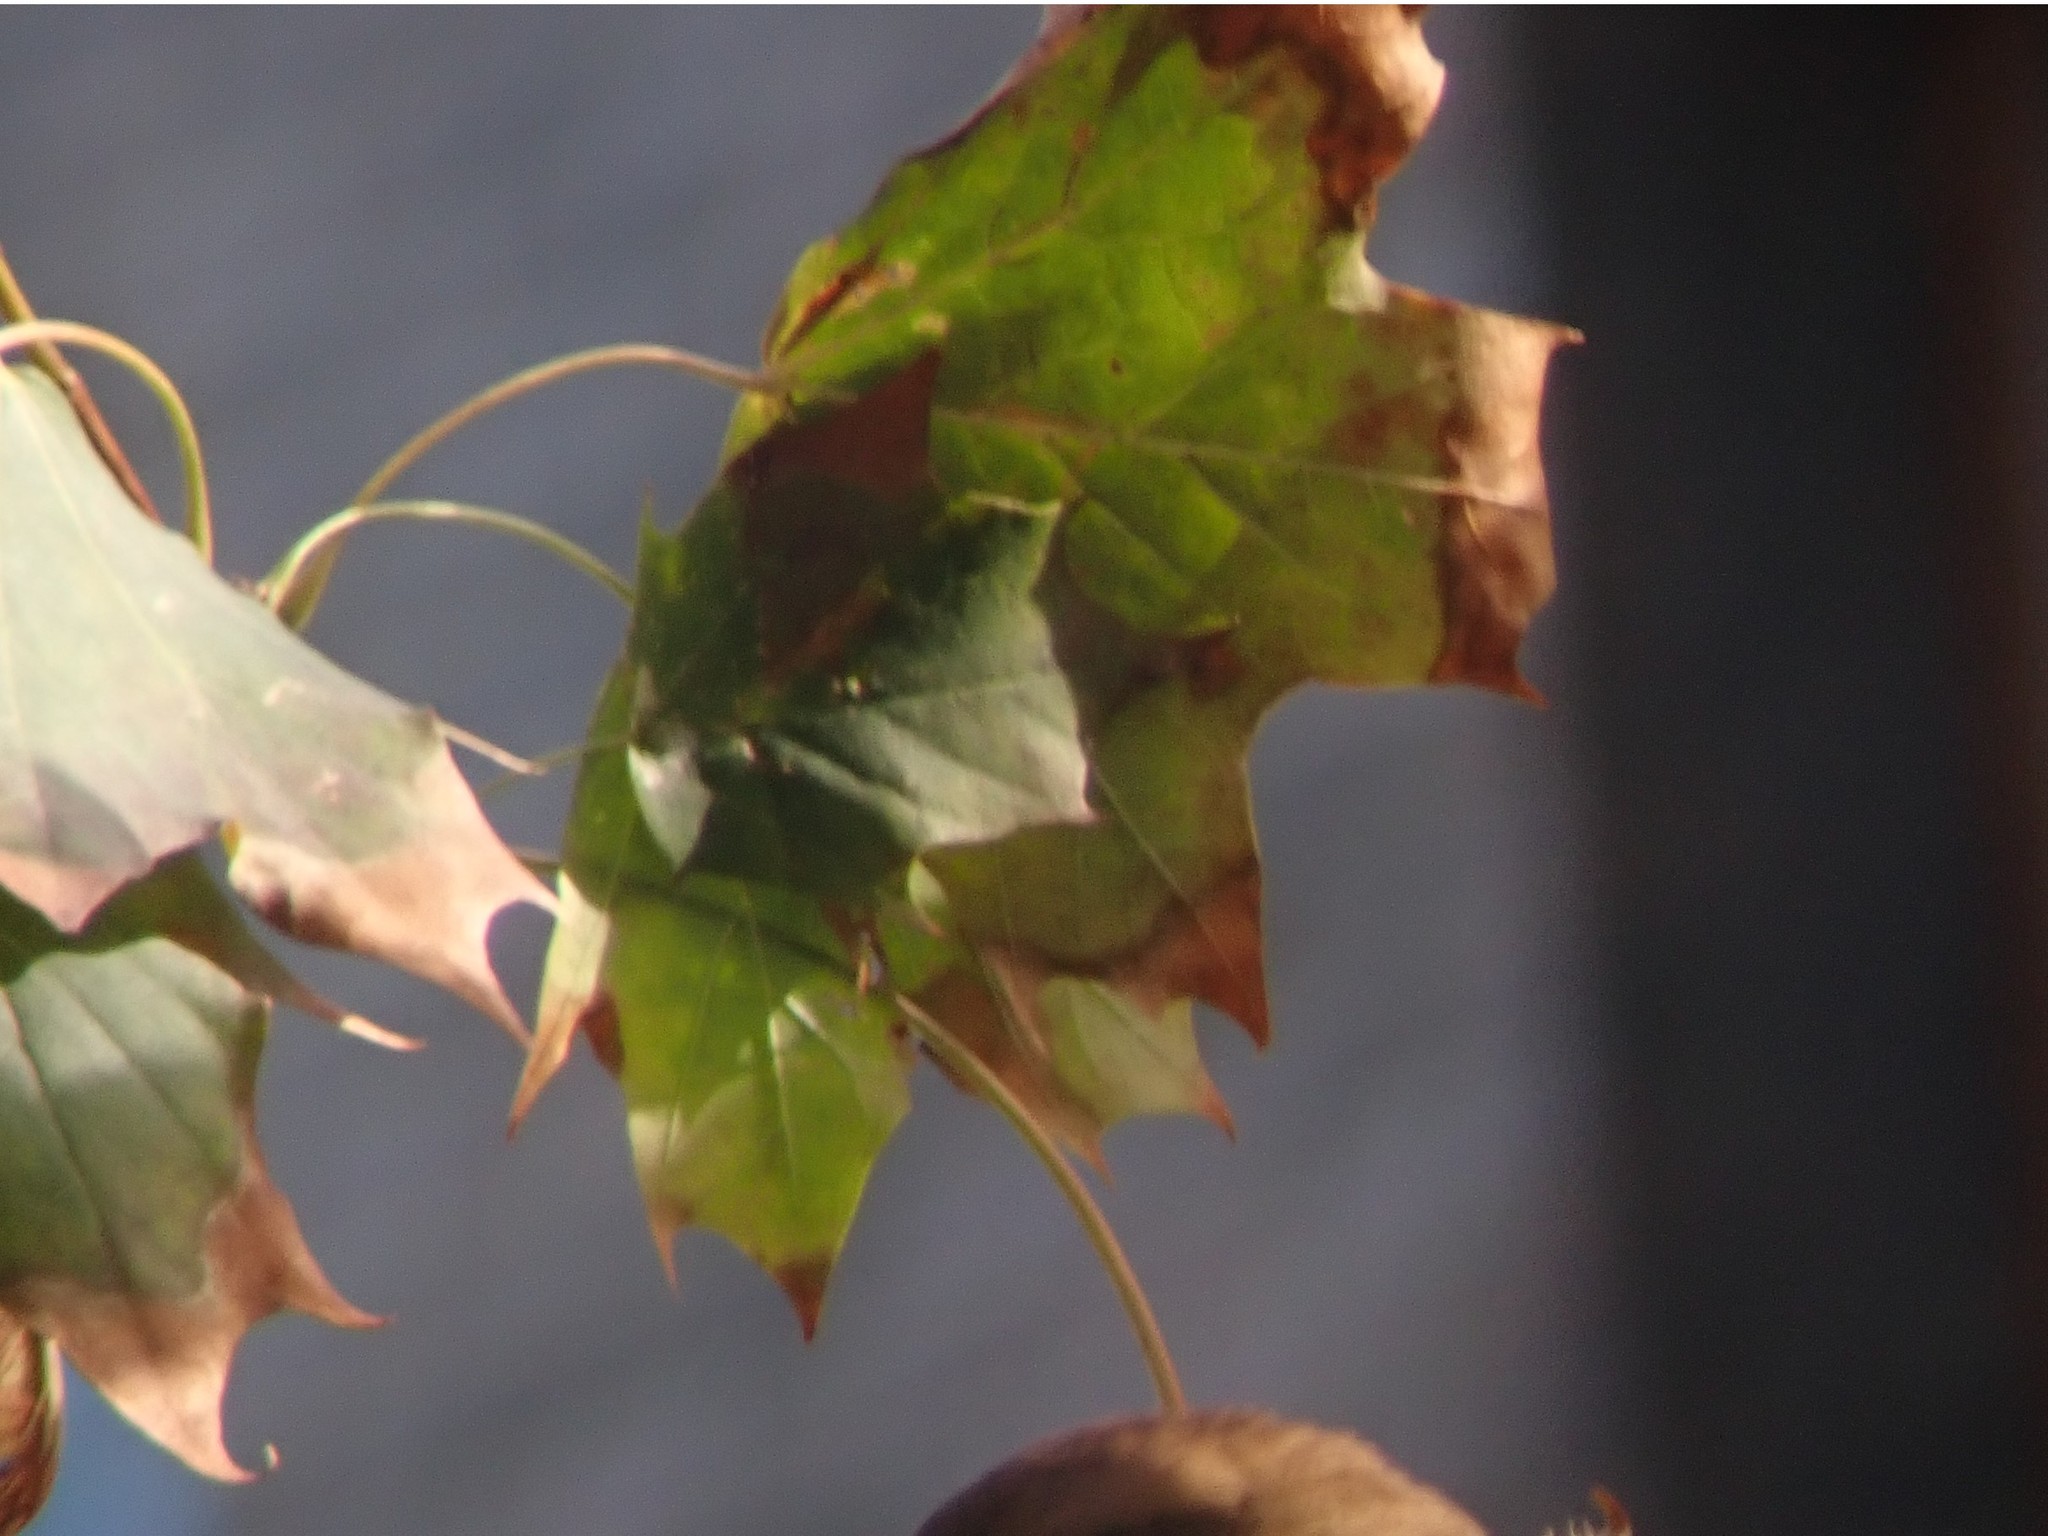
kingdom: Plantae
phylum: Tracheophyta
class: Magnoliopsida
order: Sapindales
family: Sapindaceae
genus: Acer
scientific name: Acer platanoides
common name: Norway maple
